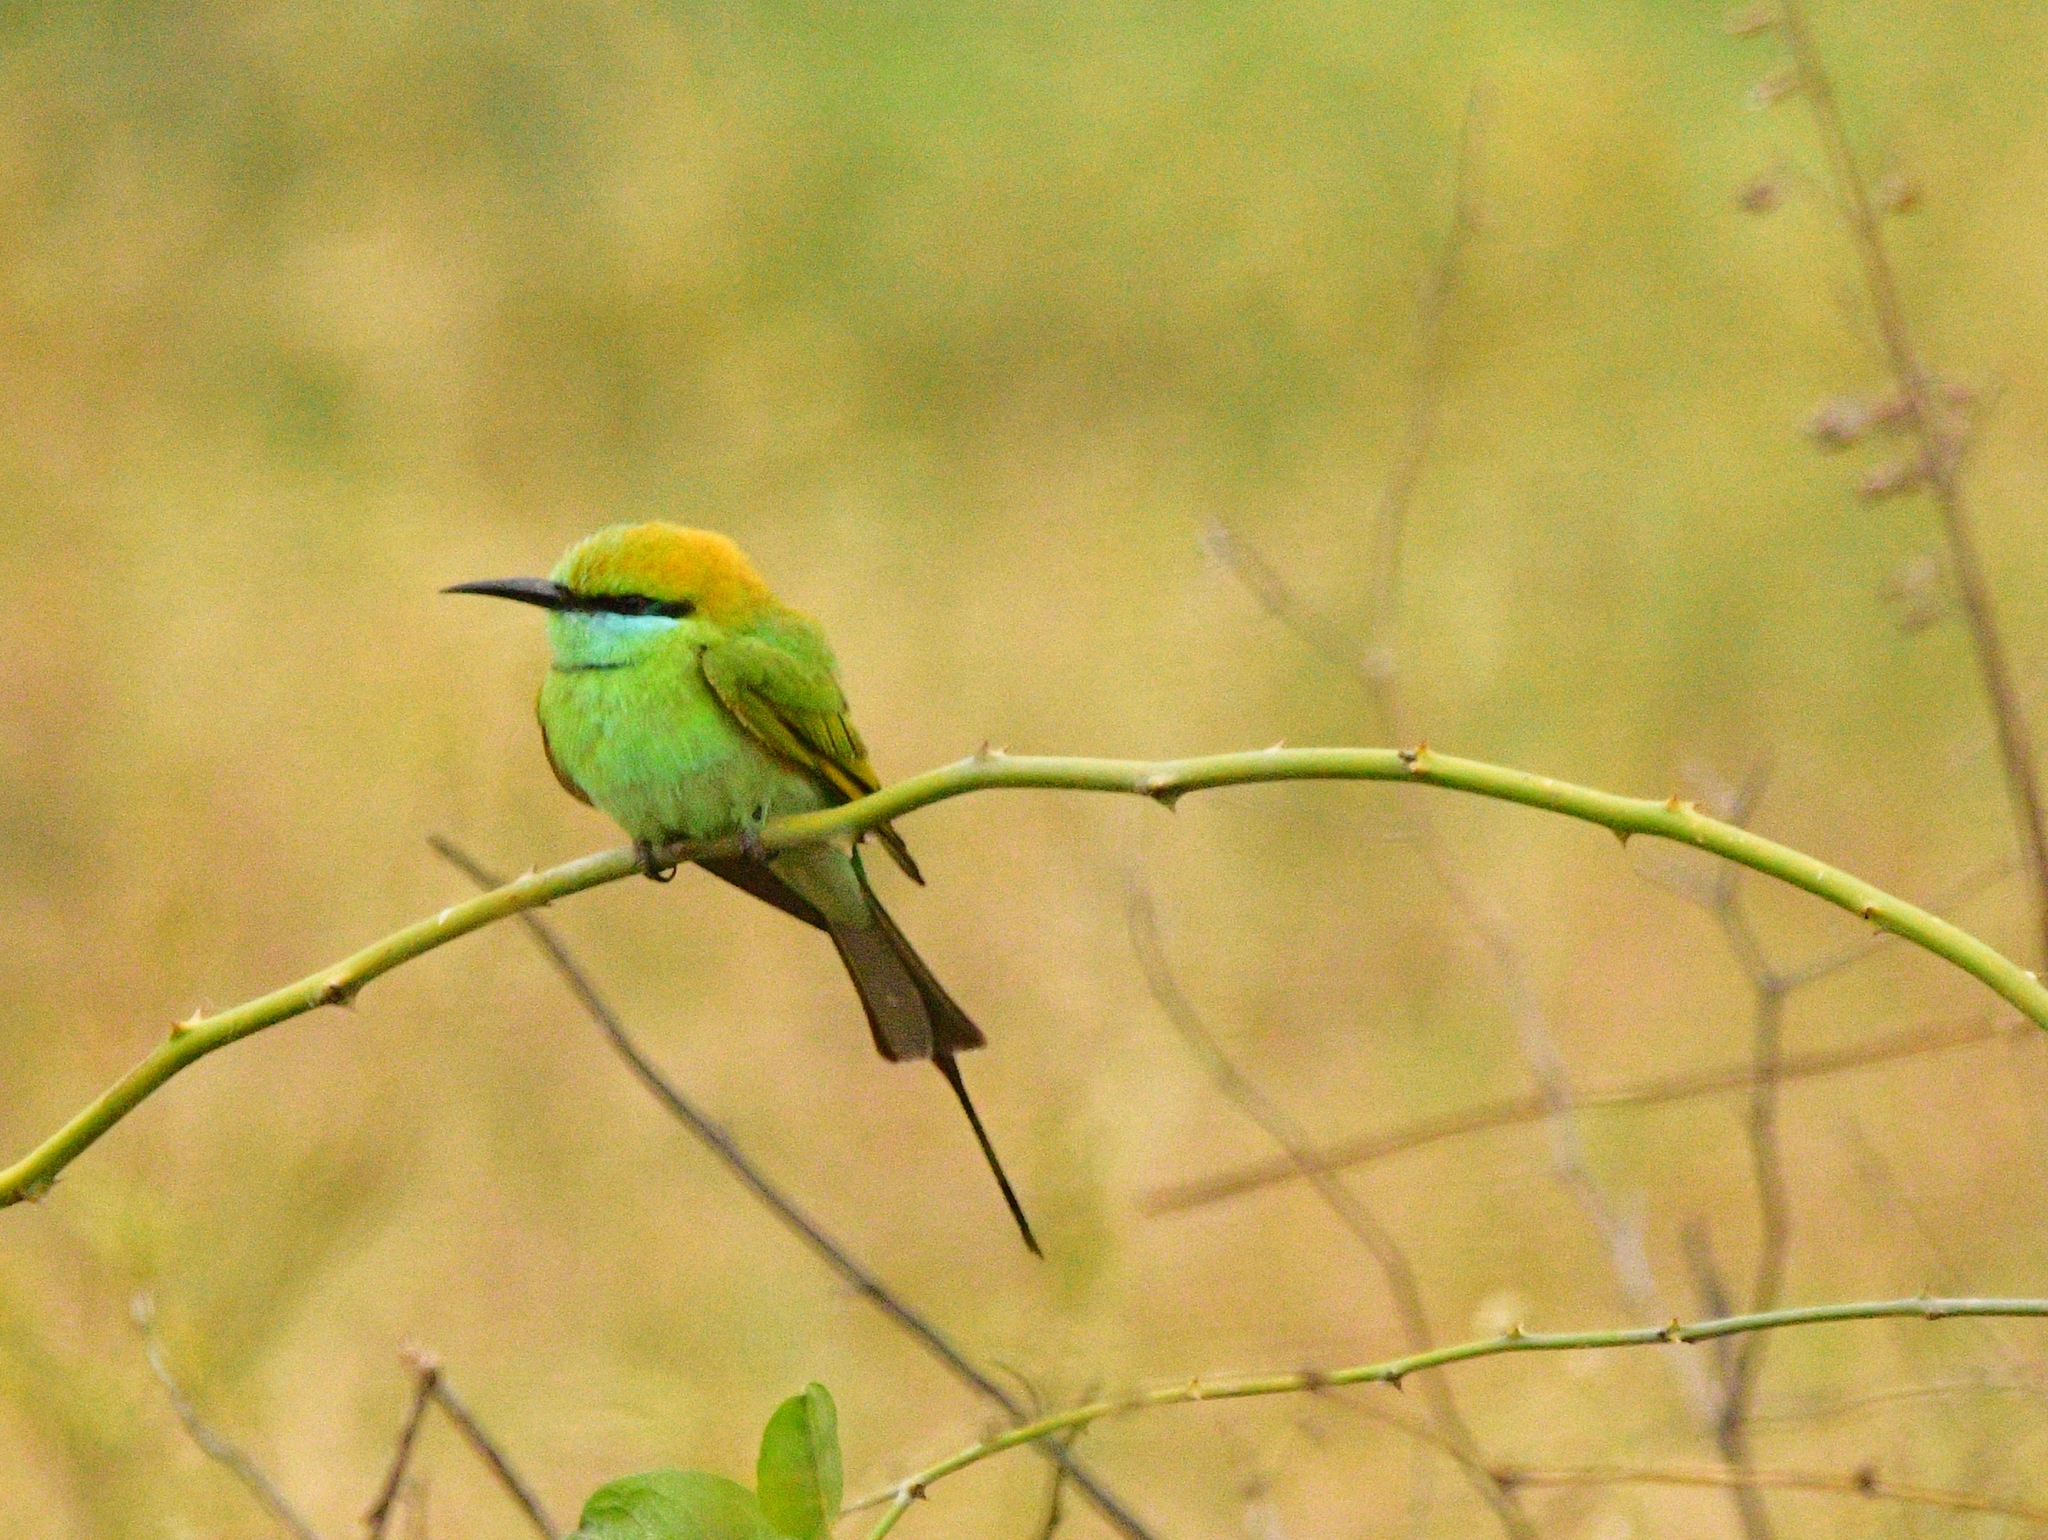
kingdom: Animalia
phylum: Chordata
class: Aves
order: Coraciiformes
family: Meropidae
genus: Merops
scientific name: Merops orientalis
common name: Green bee-eater
